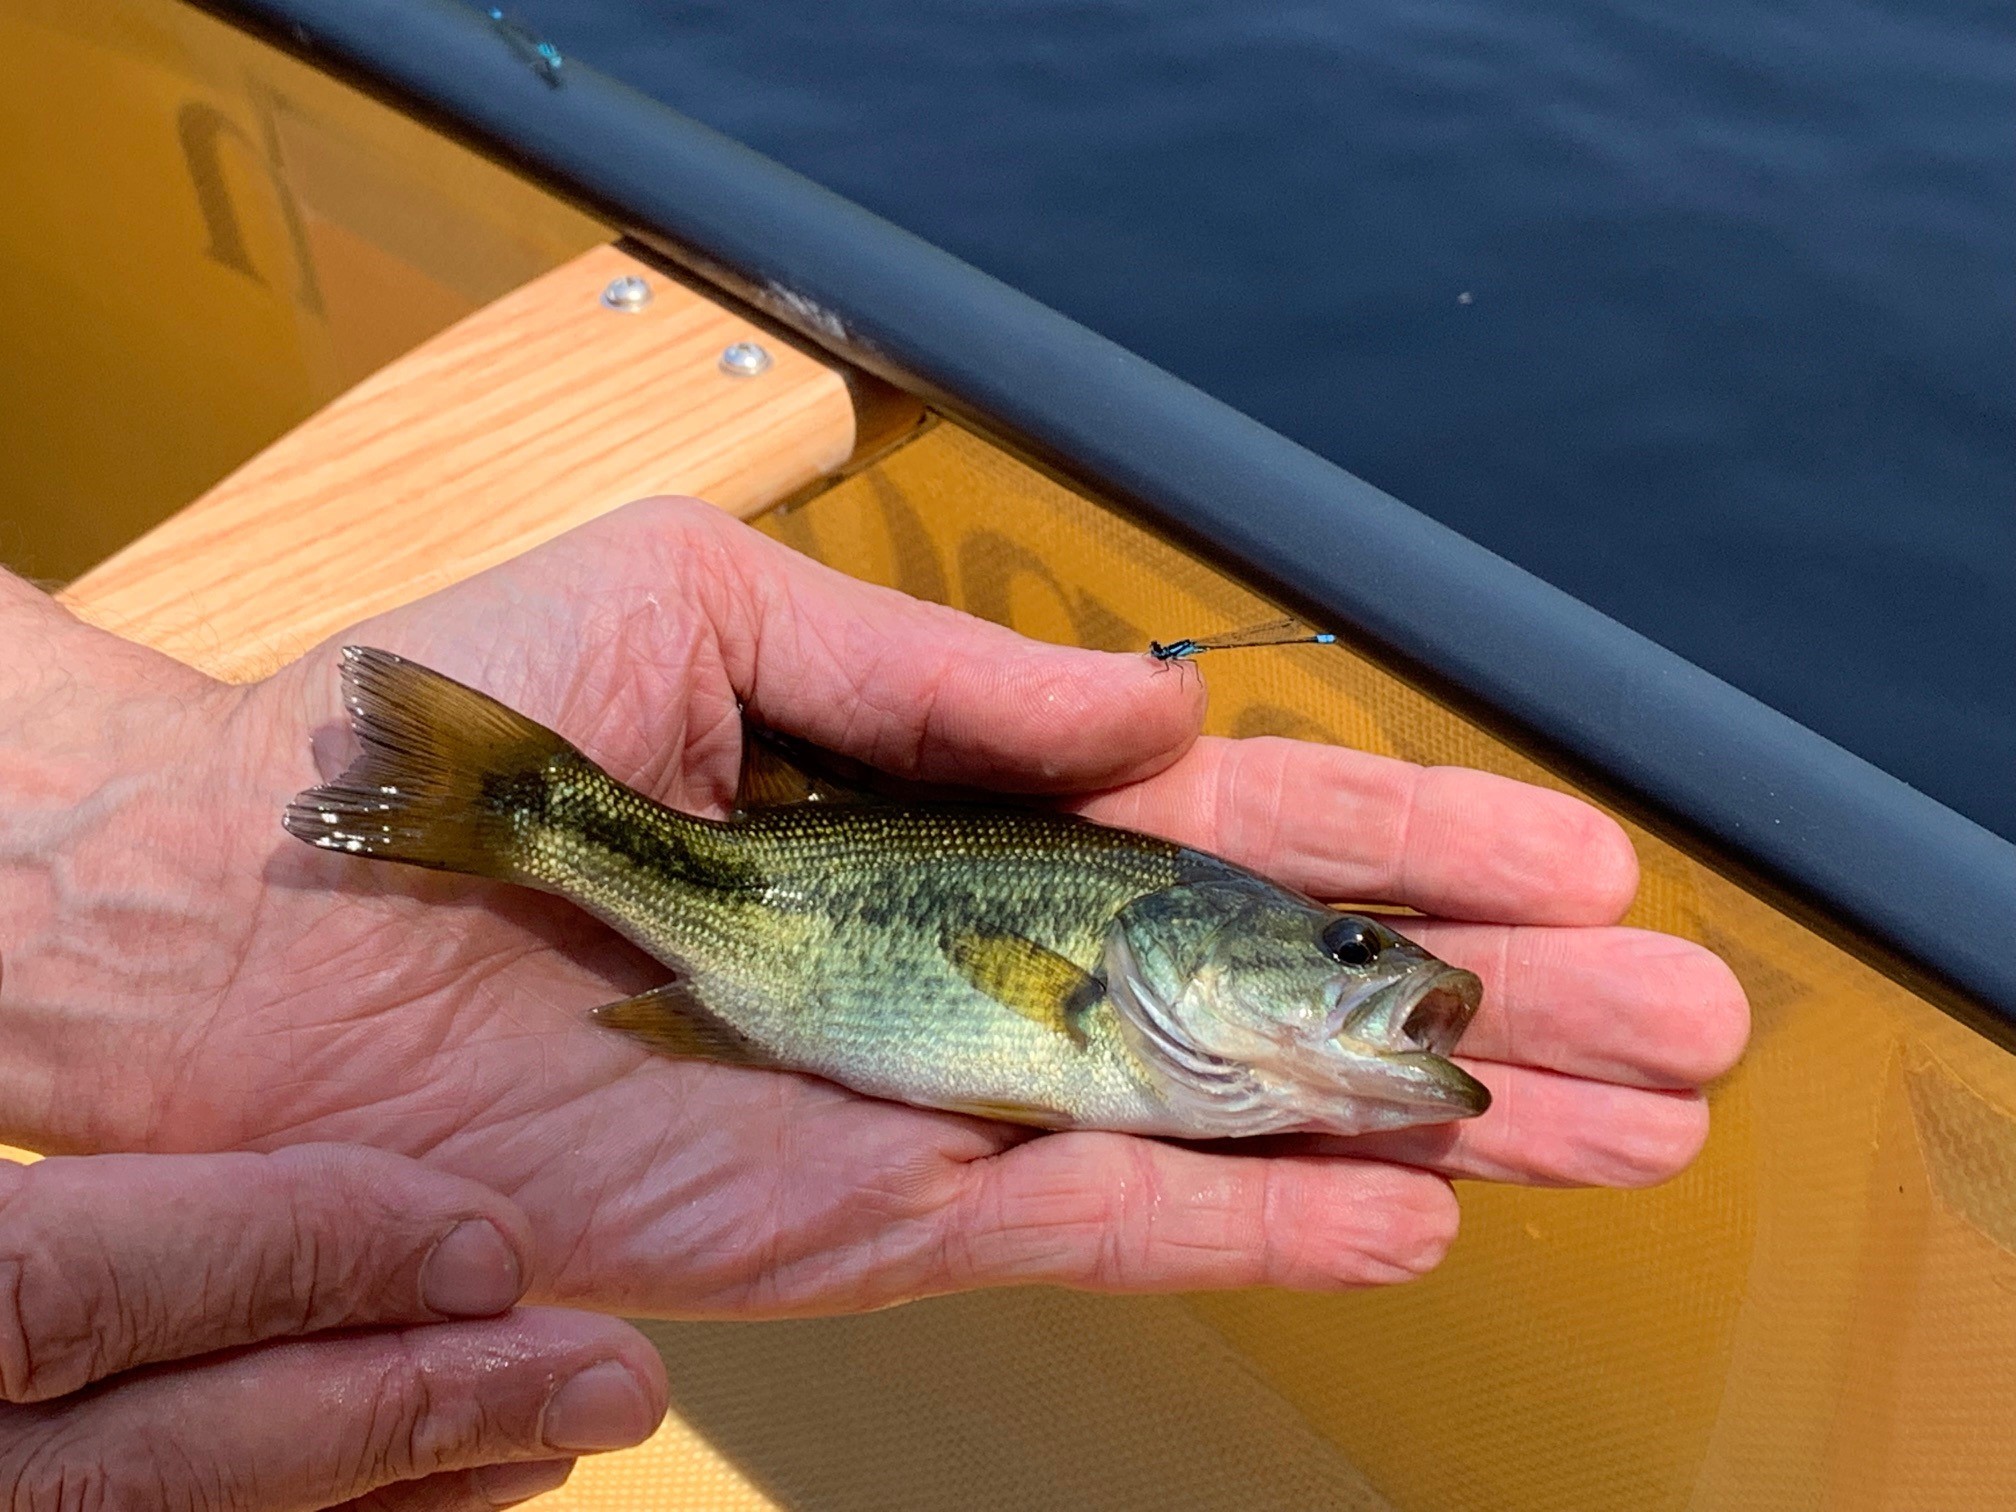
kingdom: Animalia
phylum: Chordata
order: Perciformes
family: Centrarchidae
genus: Micropterus
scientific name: Micropterus
